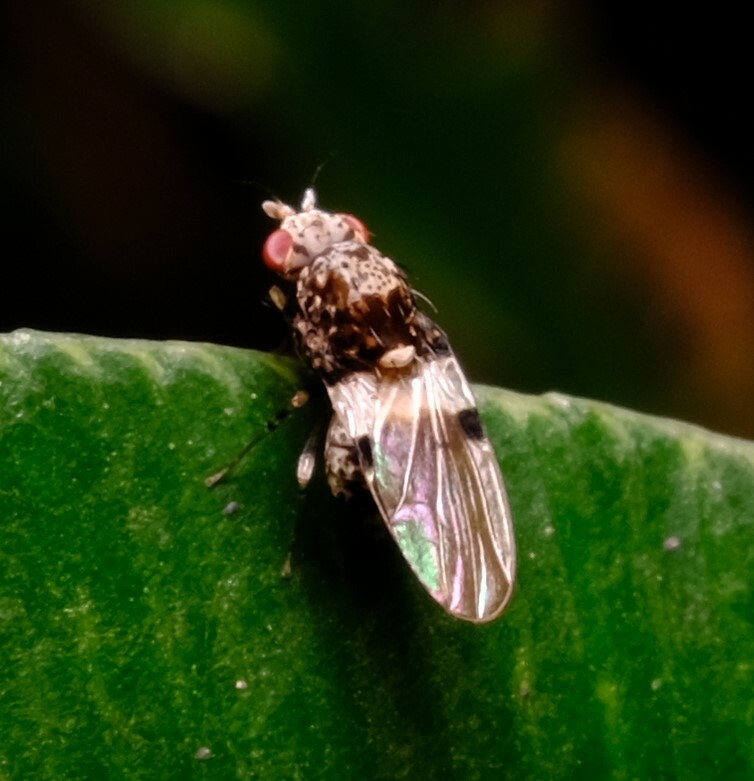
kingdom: Animalia
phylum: Arthropoda
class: Insecta
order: Diptera
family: Lauxaniidae
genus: Sapromyza
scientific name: Sapromyza pictigera
